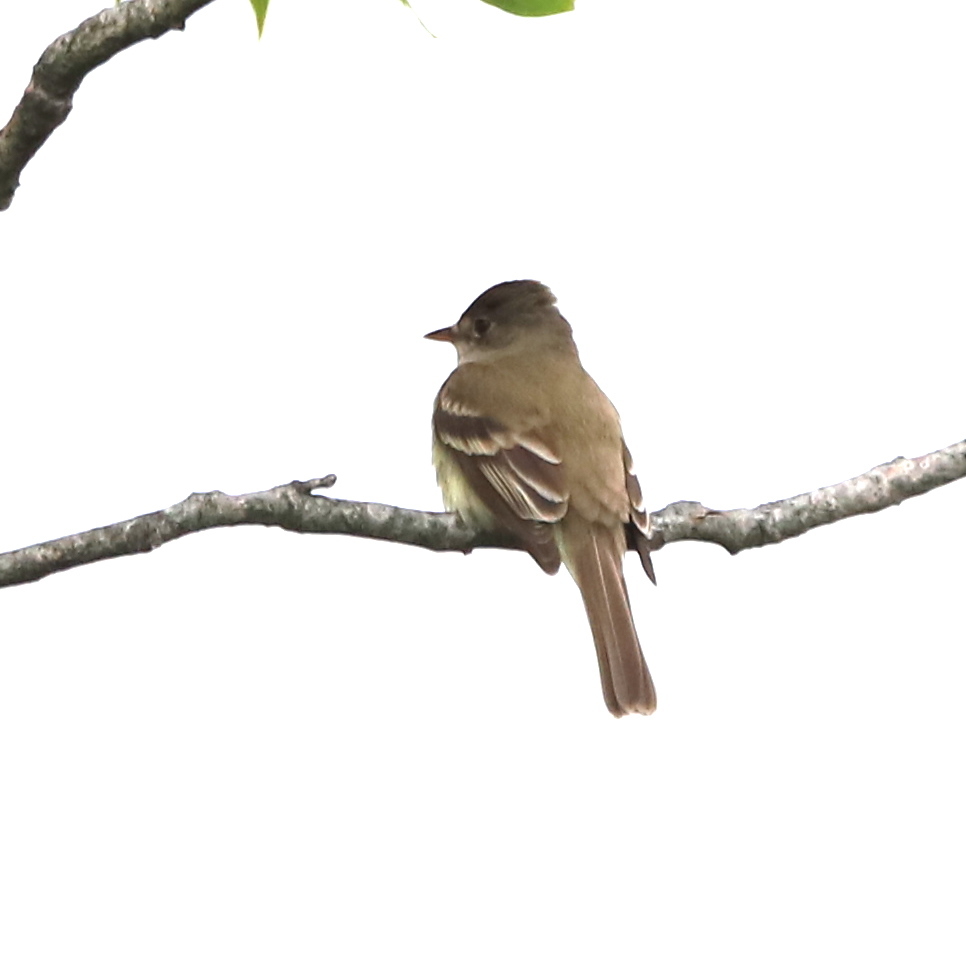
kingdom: Animalia
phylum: Chordata
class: Aves
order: Passeriformes
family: Tyrannidae
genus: Empidonax
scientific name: Empidonax
